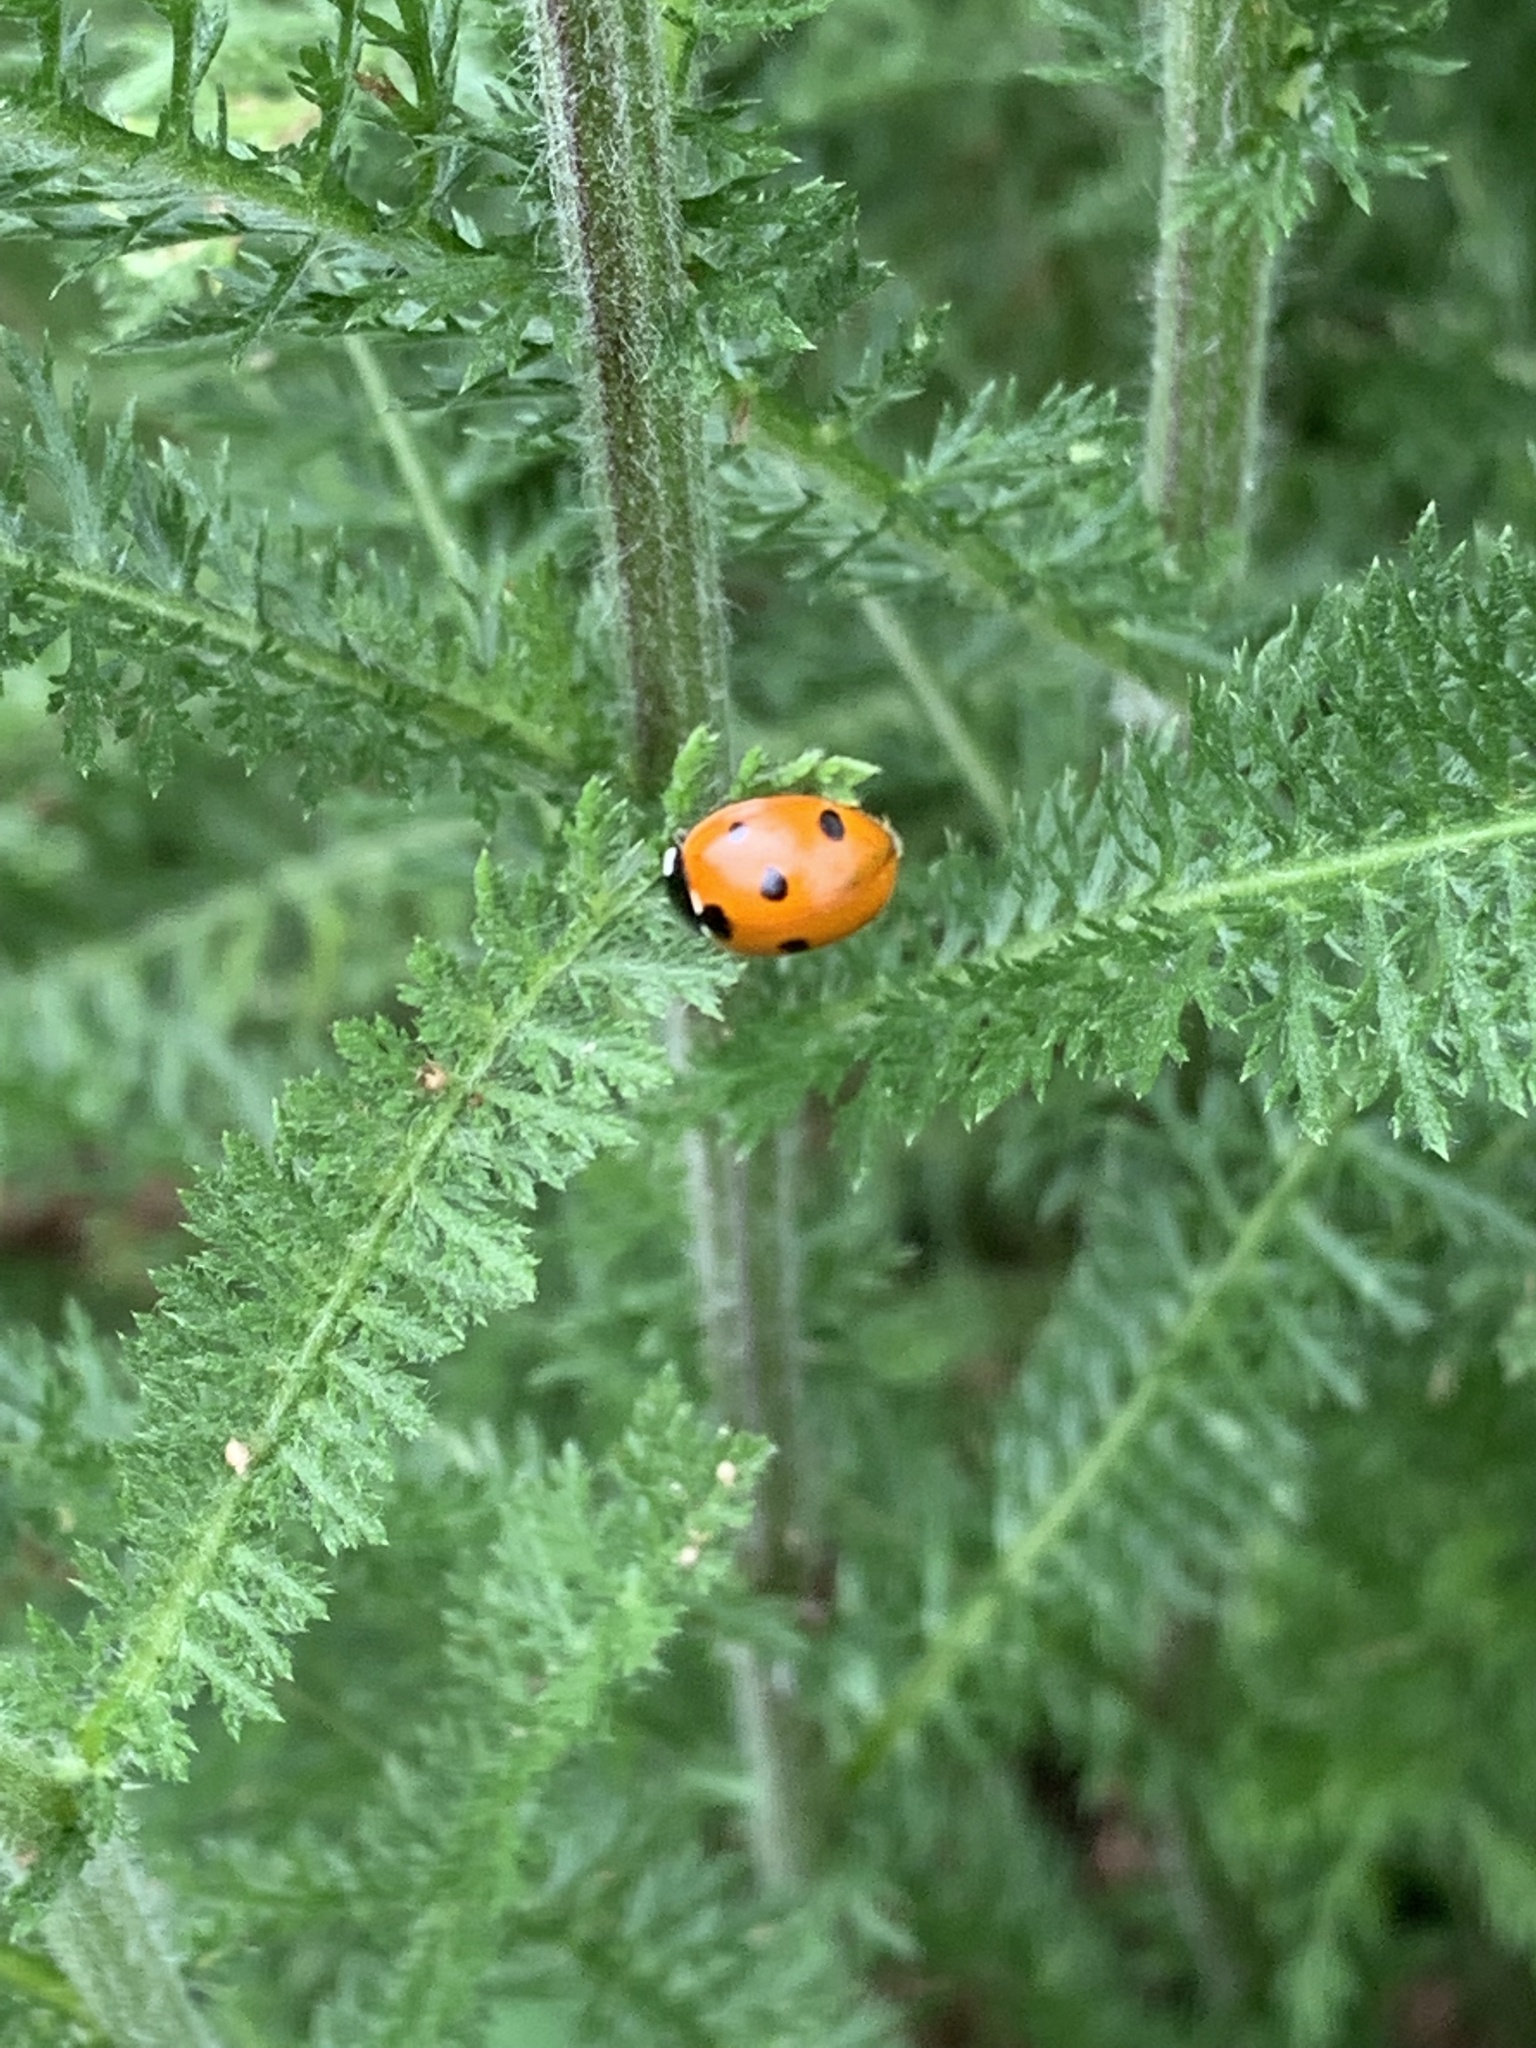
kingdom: Animalia
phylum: Arthropoda
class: Insecta
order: Coleoptera
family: Coccinellidae
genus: Coccinella
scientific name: Coccinella septempunctata
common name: Sevenspotted lady beetle
